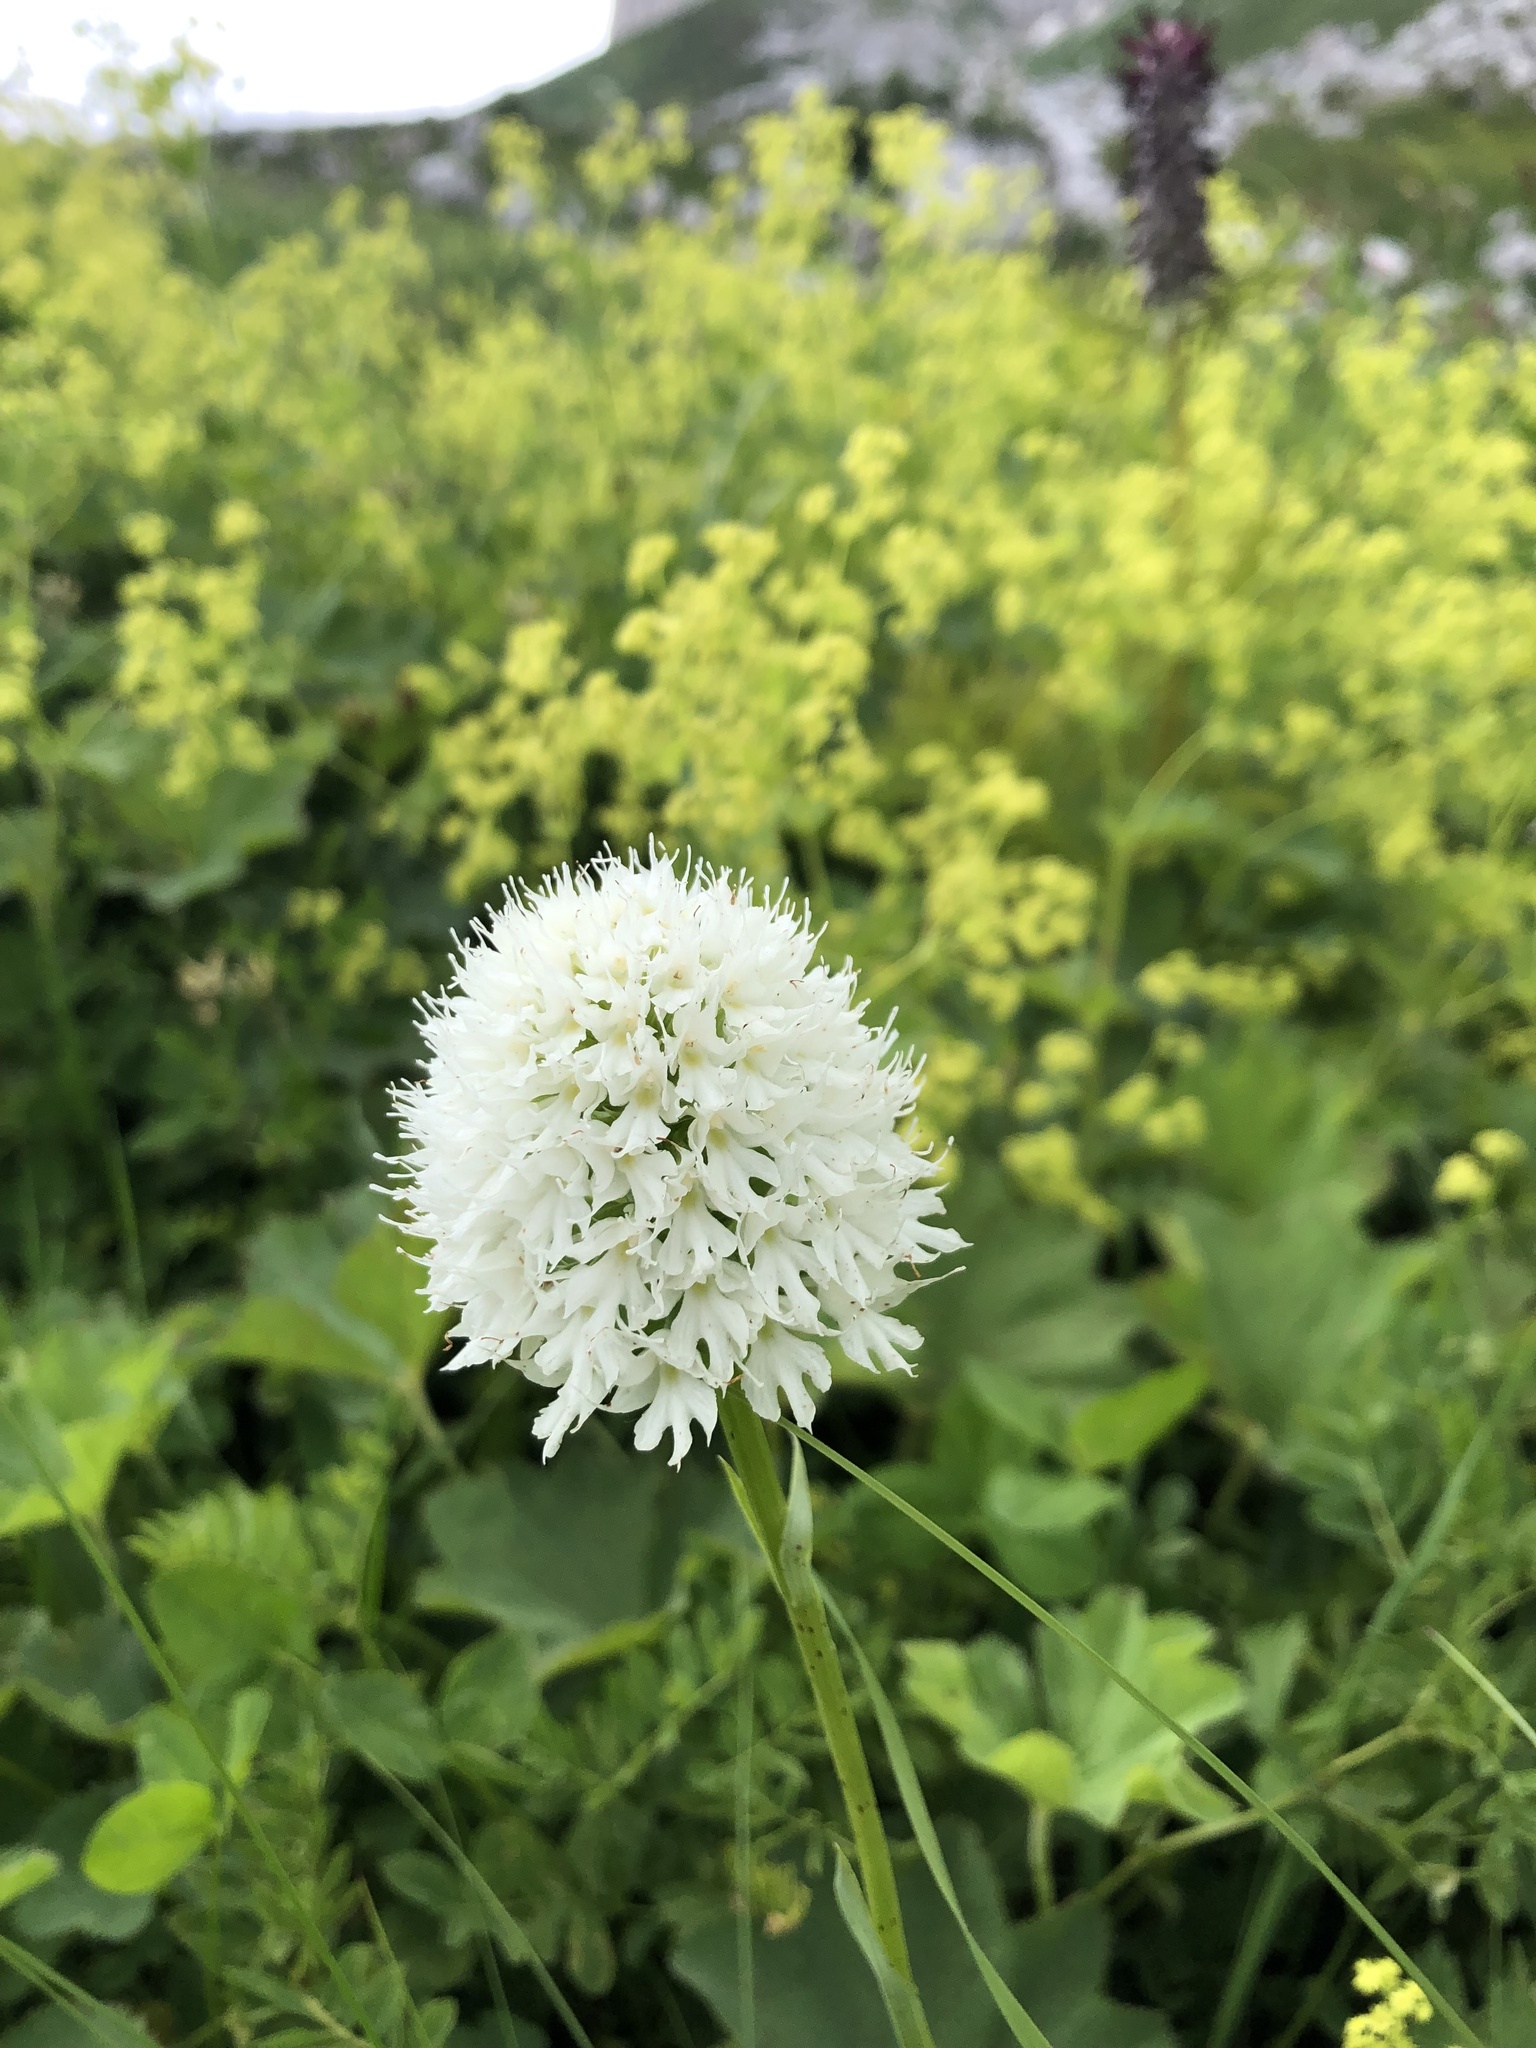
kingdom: Plantae
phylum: Tracheophyta
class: Liliopsida
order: Asparagales
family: Orchidaceae
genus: Traunsteinera
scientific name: Traunsteinera sphaerica
